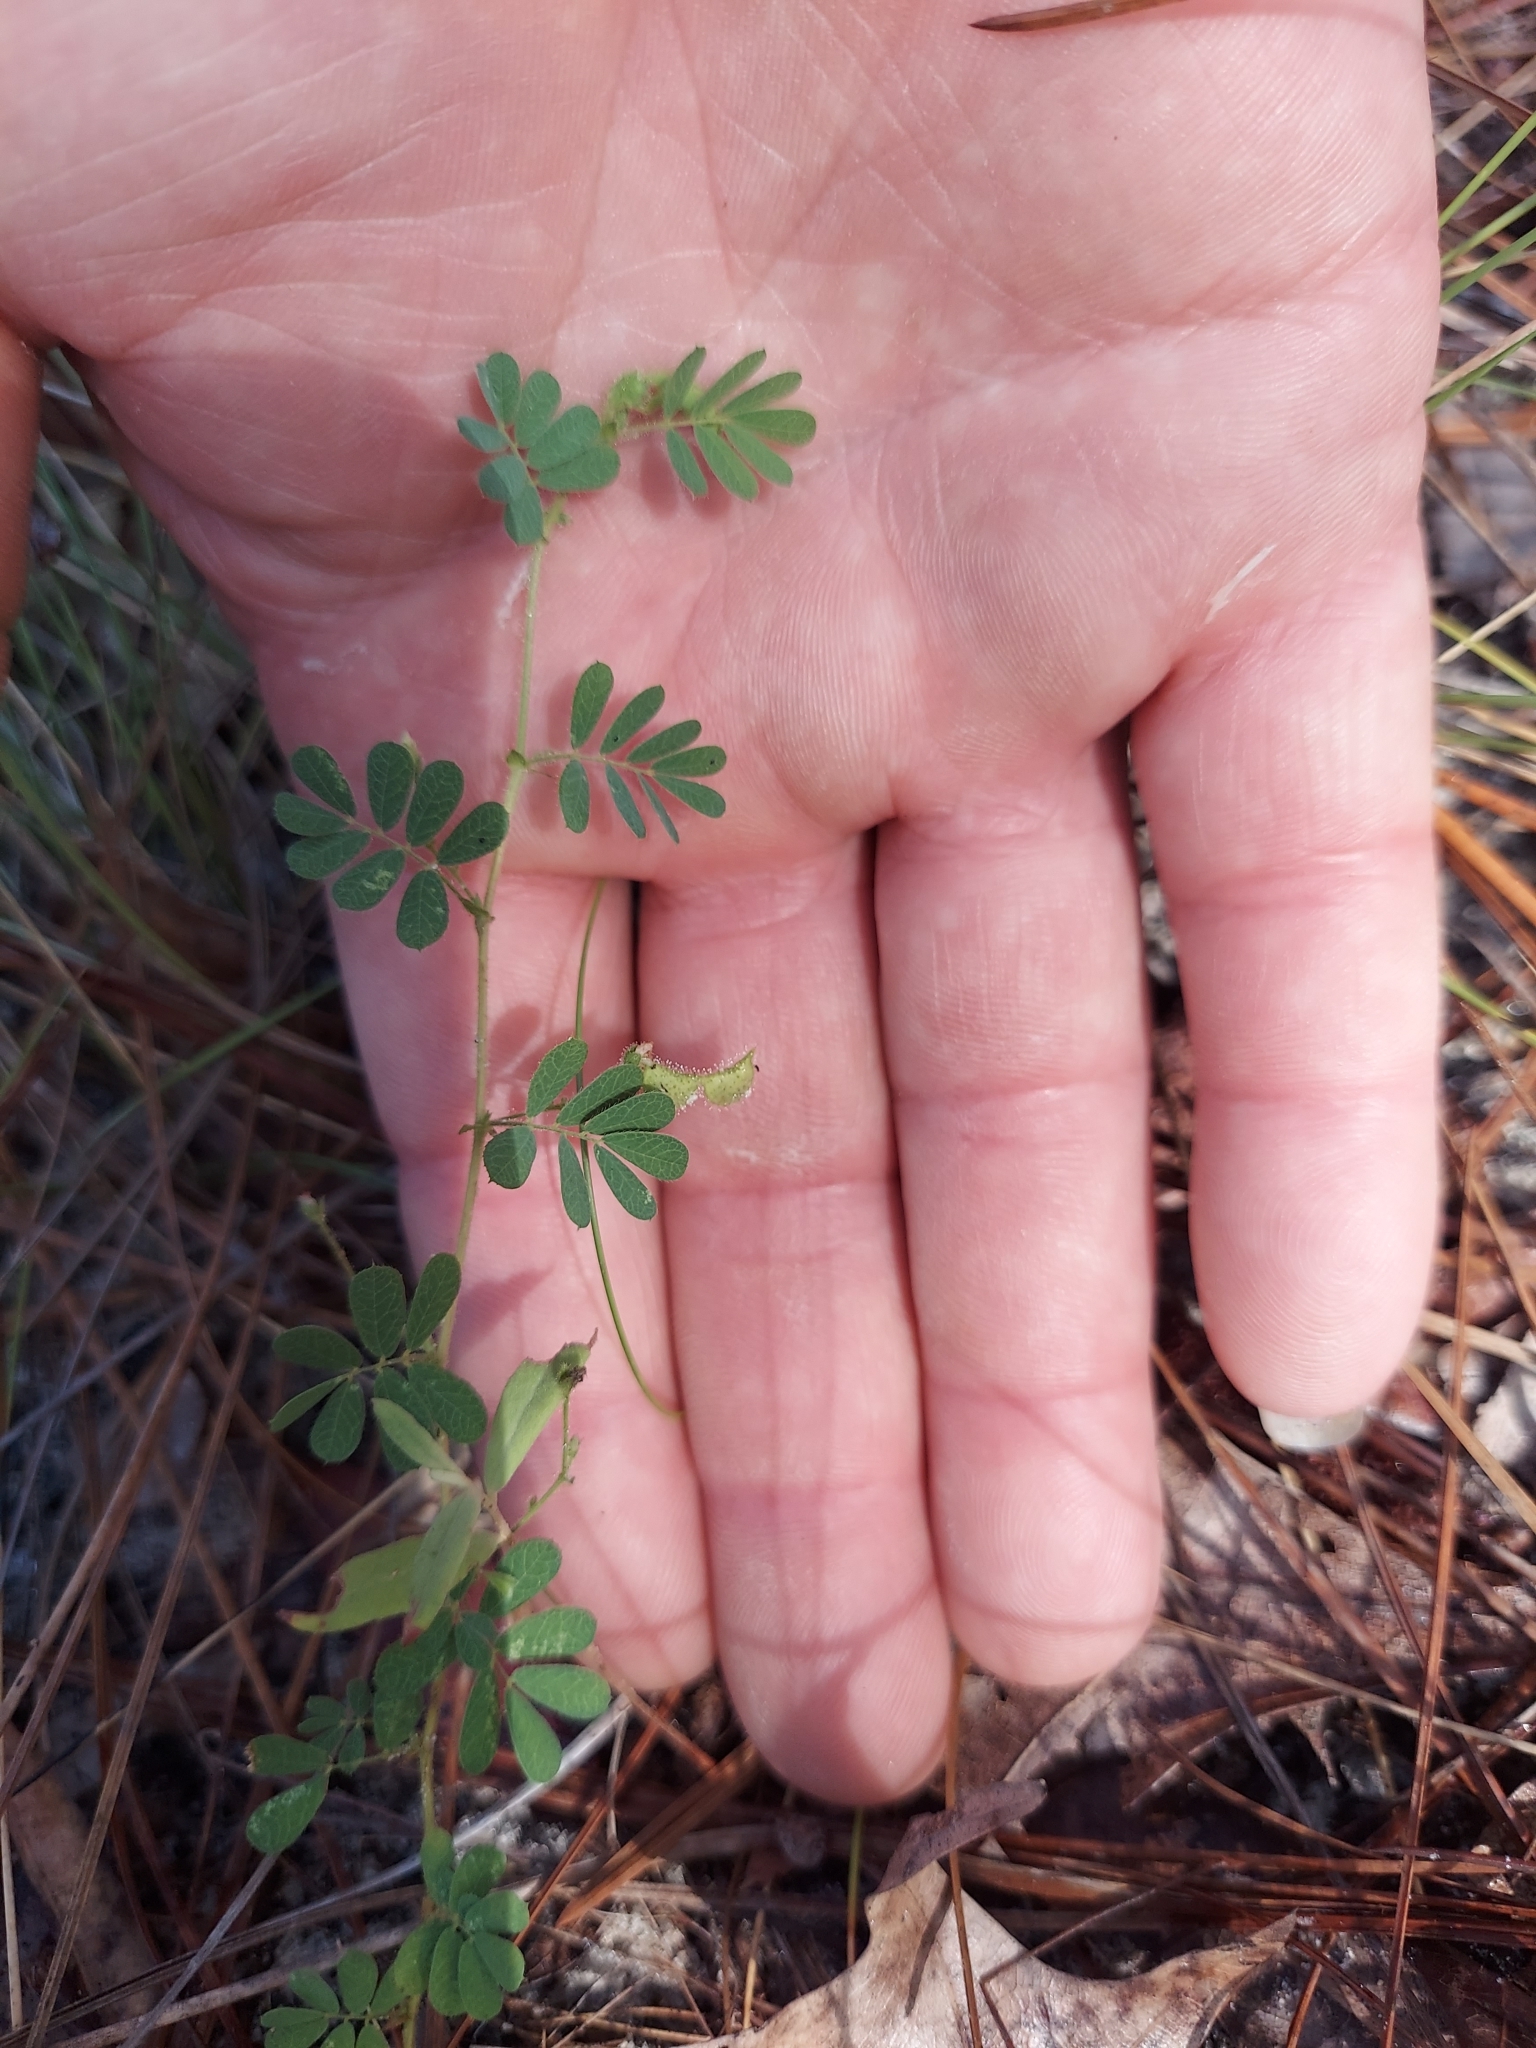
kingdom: Plantae
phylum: Tracheophyta
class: Magnoliopsida
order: Fabales
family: Fabaceae
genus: Ctenodon
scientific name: Ctenodon viscidulus
